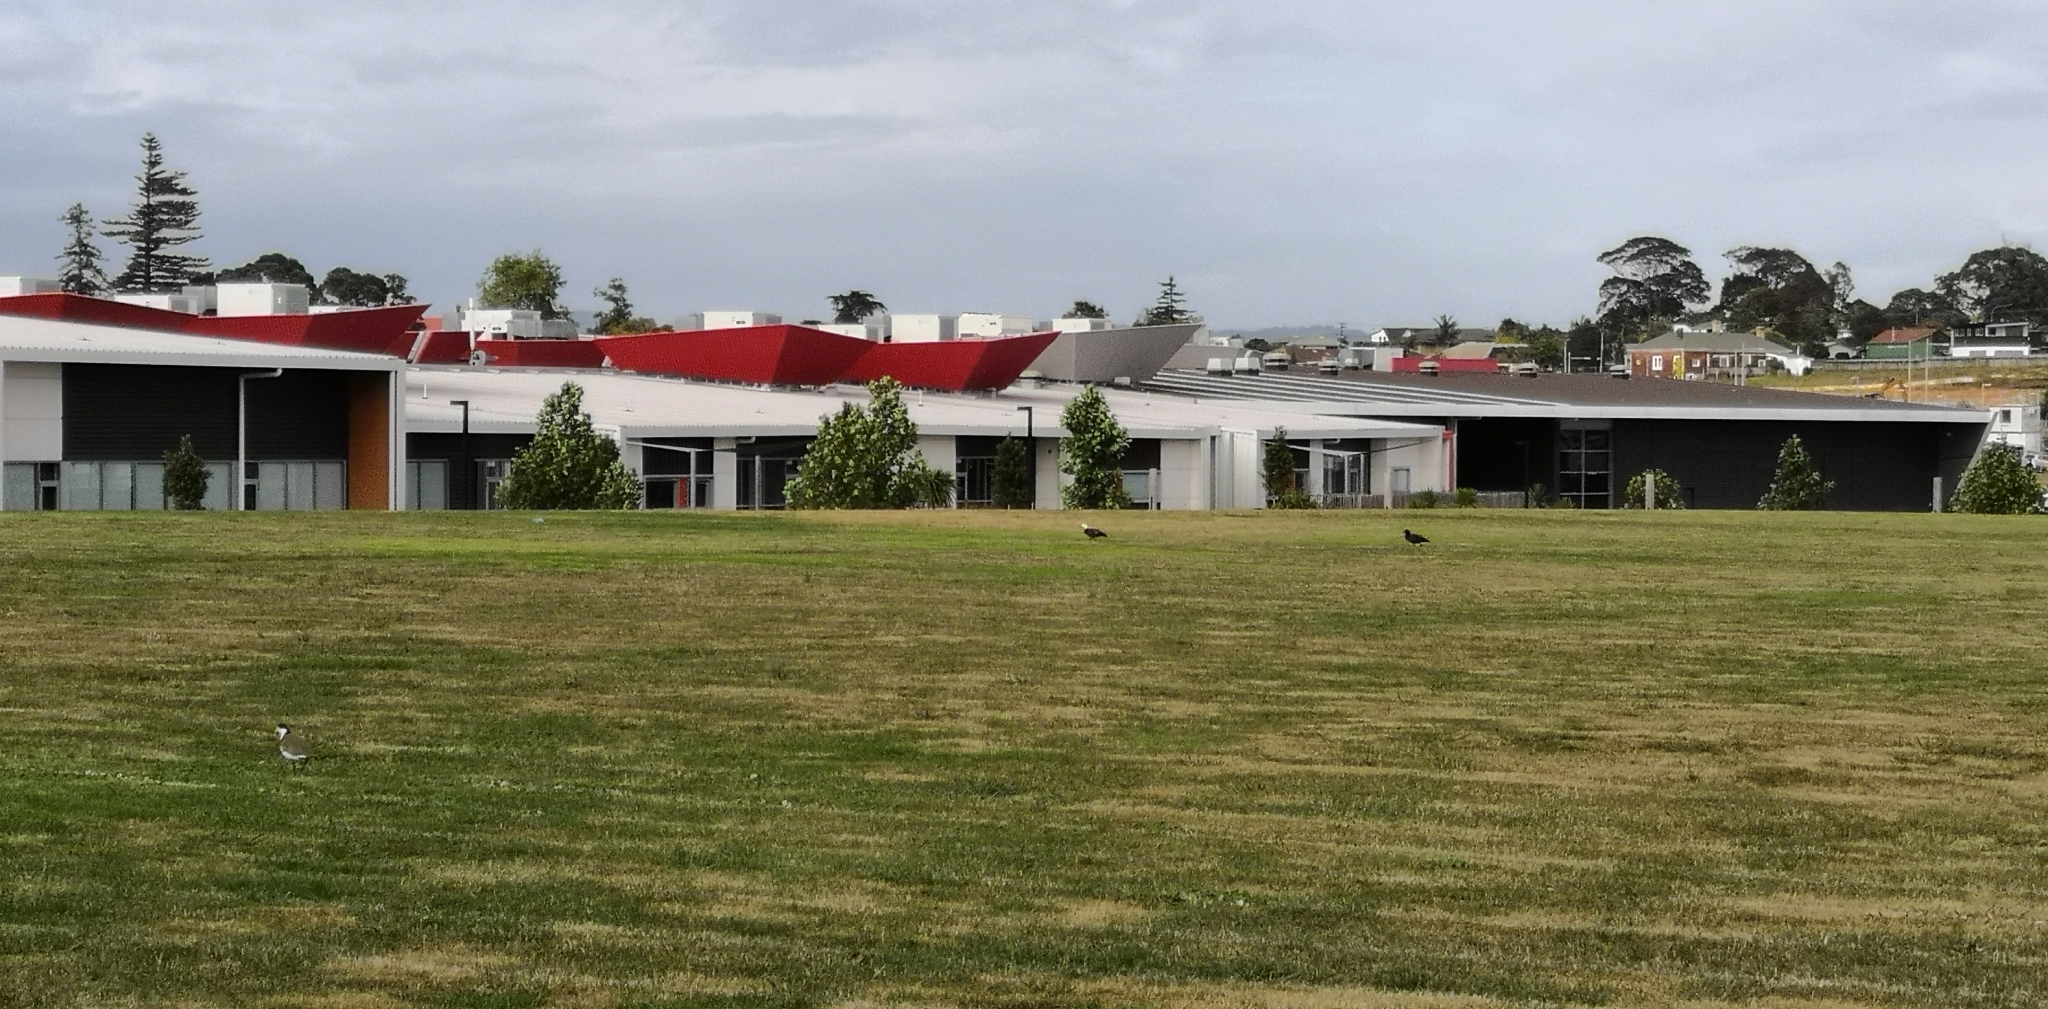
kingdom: Animalia
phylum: Chordata
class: Aves
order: Anseriformes
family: Anatidae
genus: Tadorna
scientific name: Tadorna variegata
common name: Paradise shelduck
